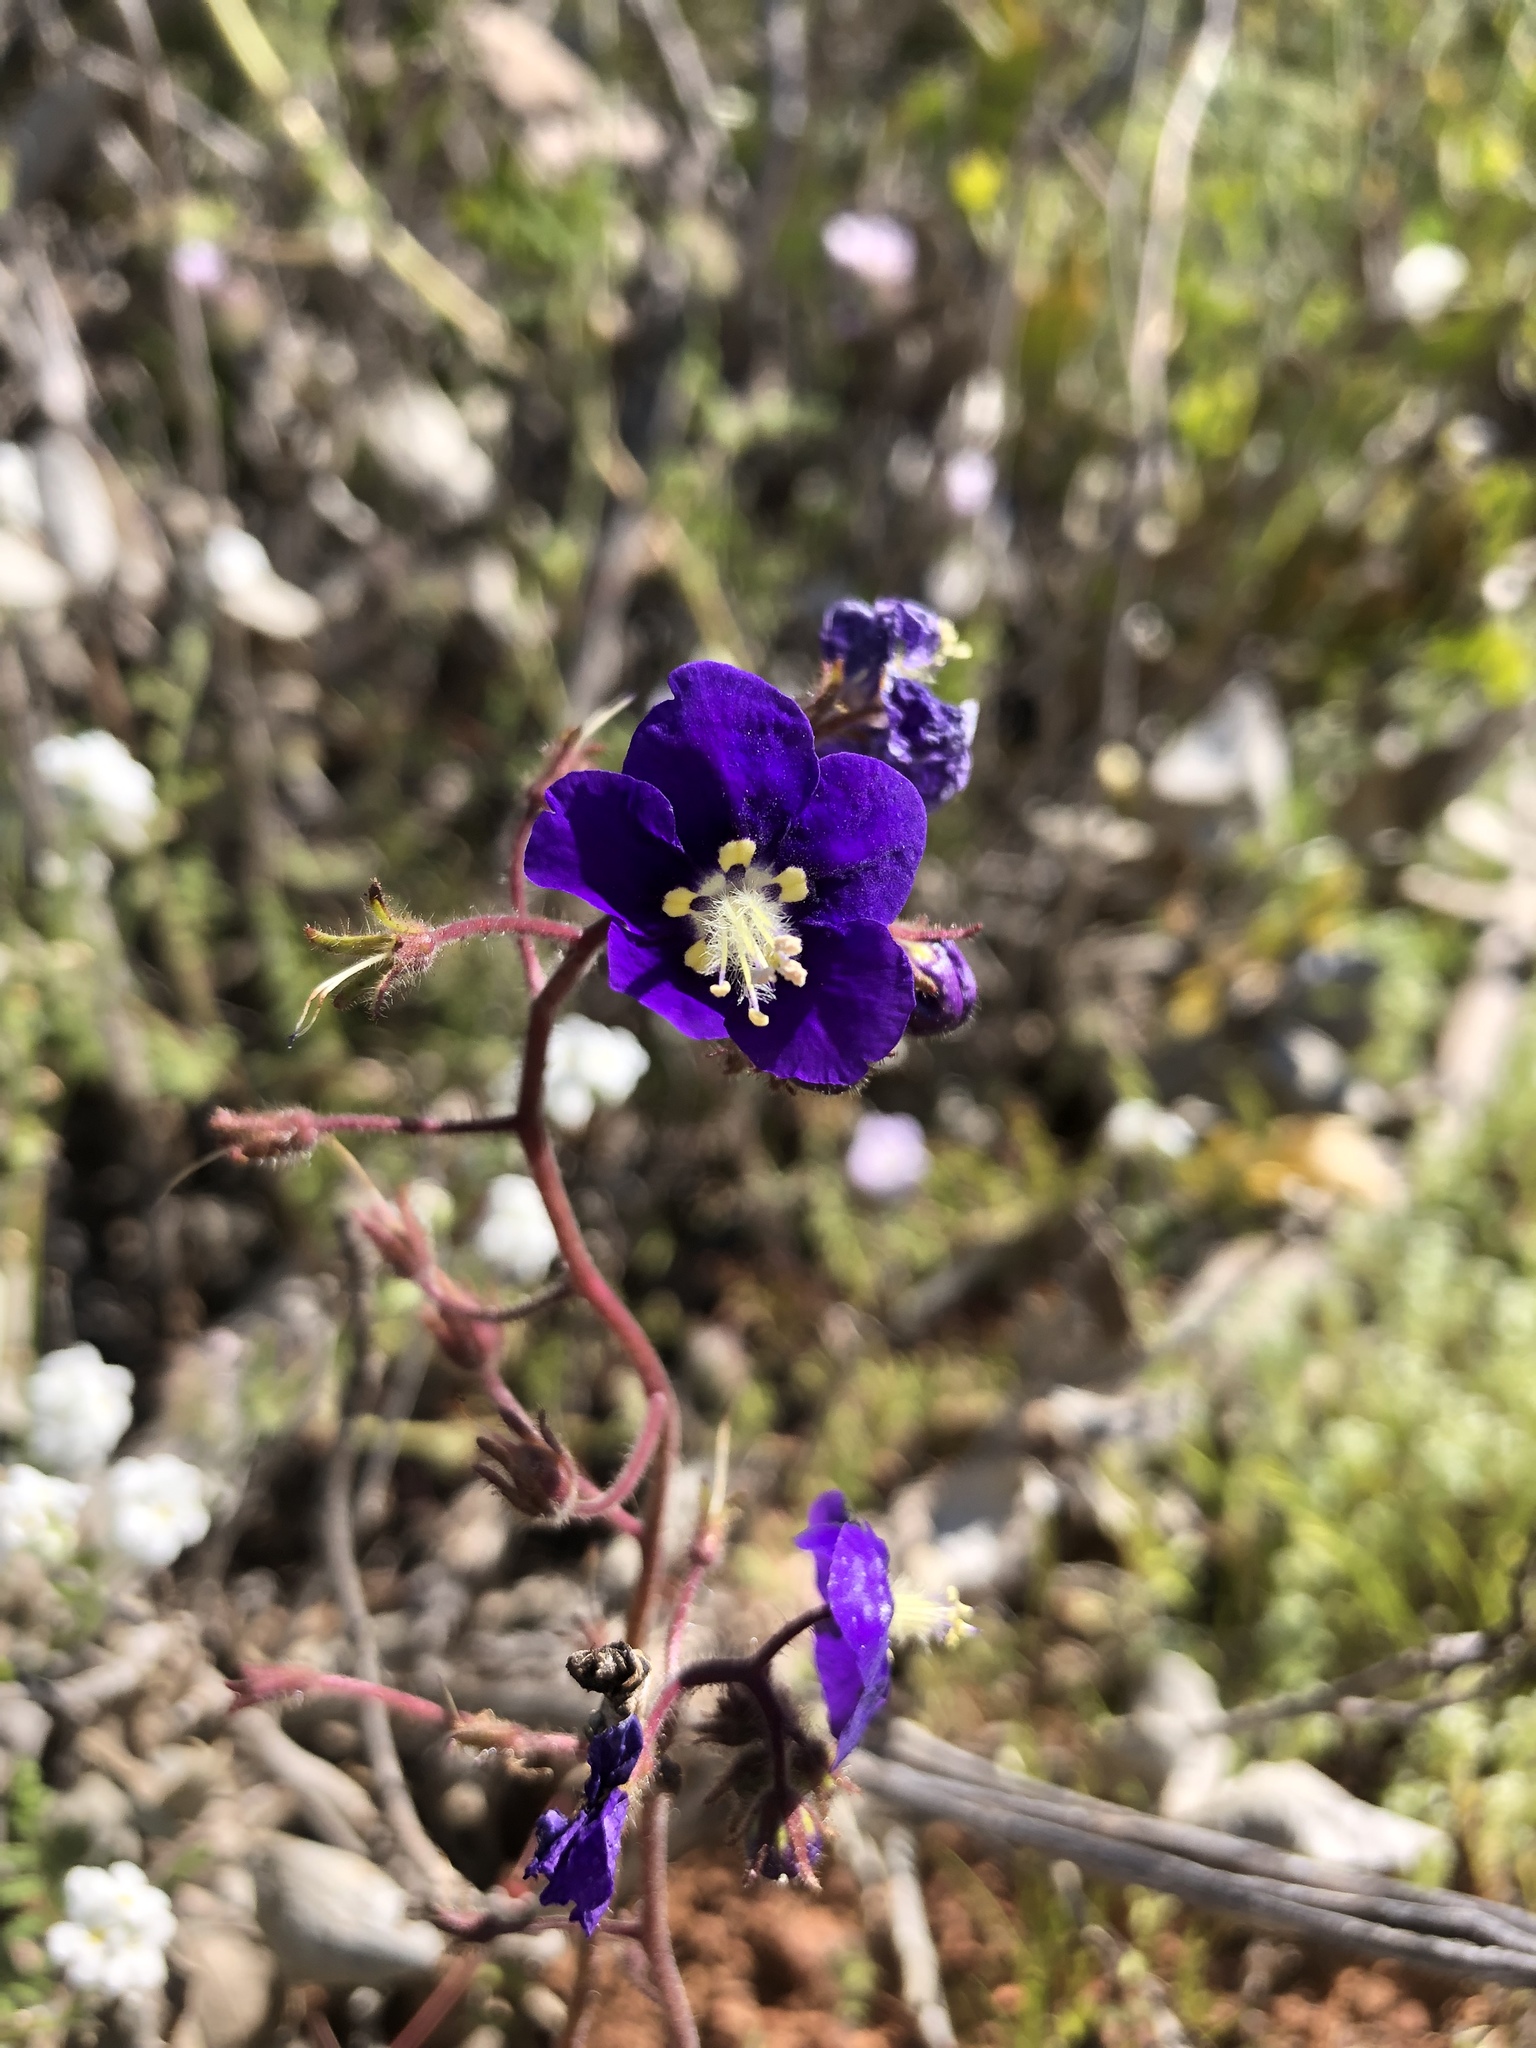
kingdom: Plantae
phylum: Tracheophyta
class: Magnoliopsida
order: Boraginales
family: Hydrophyllaceae
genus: Phacelia
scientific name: Phacelia parryi
